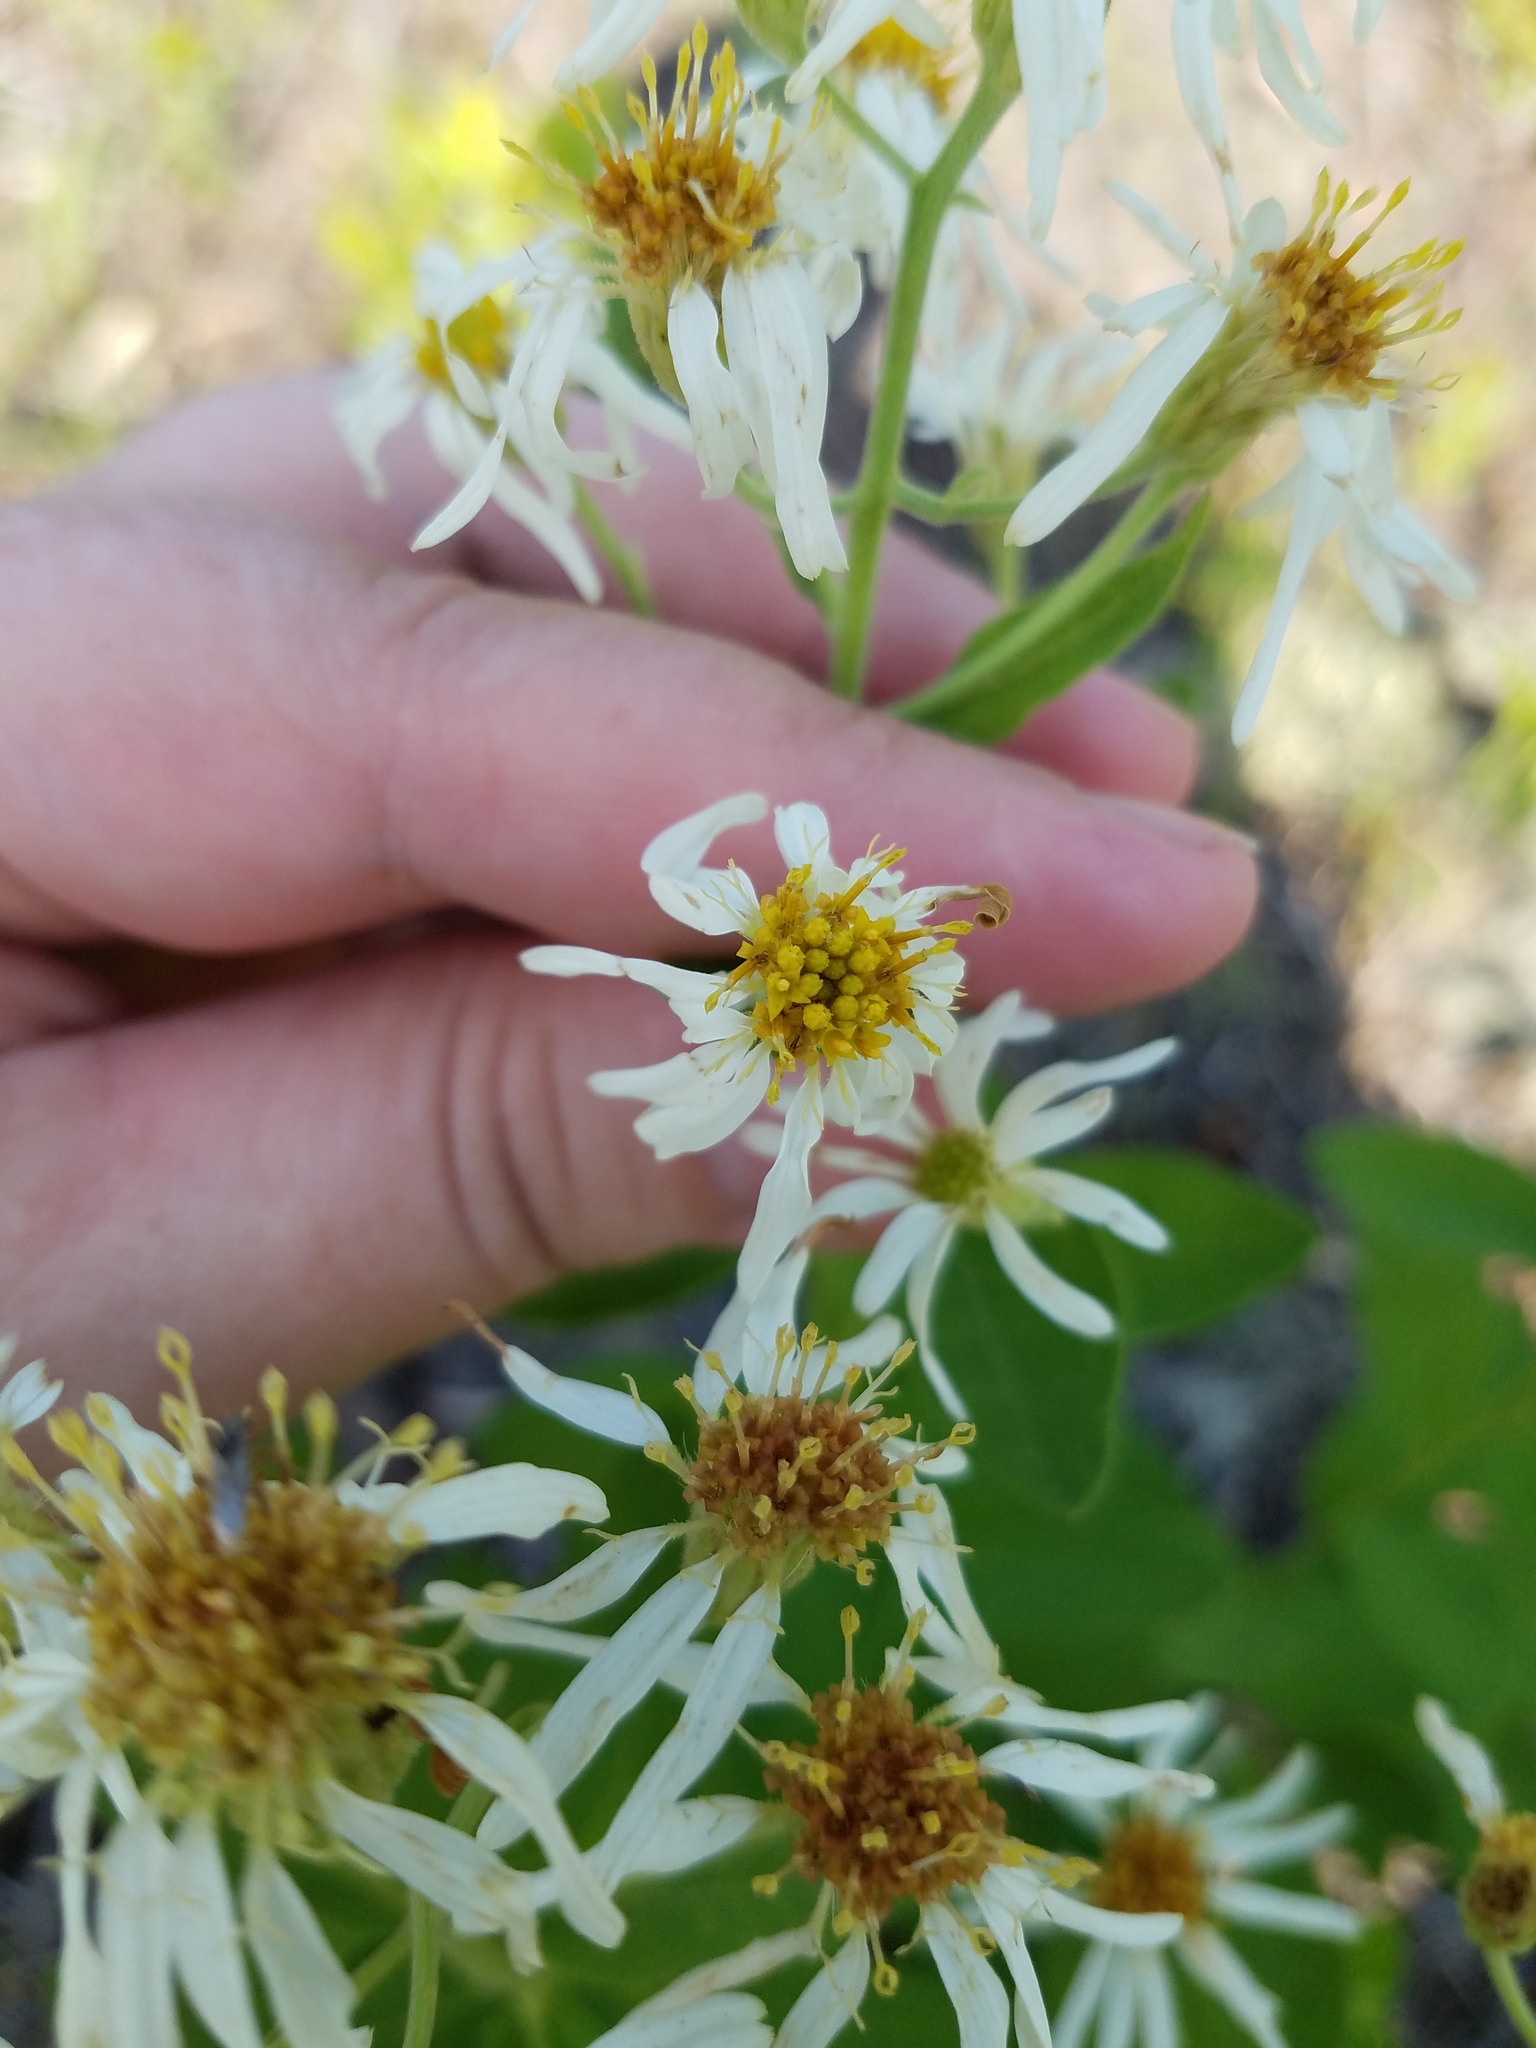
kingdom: Plantae
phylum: Tracheophyta
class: Magnoliopsida
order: Asterales
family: Asteraceae
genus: Oclemena
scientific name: Oclemena reticulata
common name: Pinebarren aster
